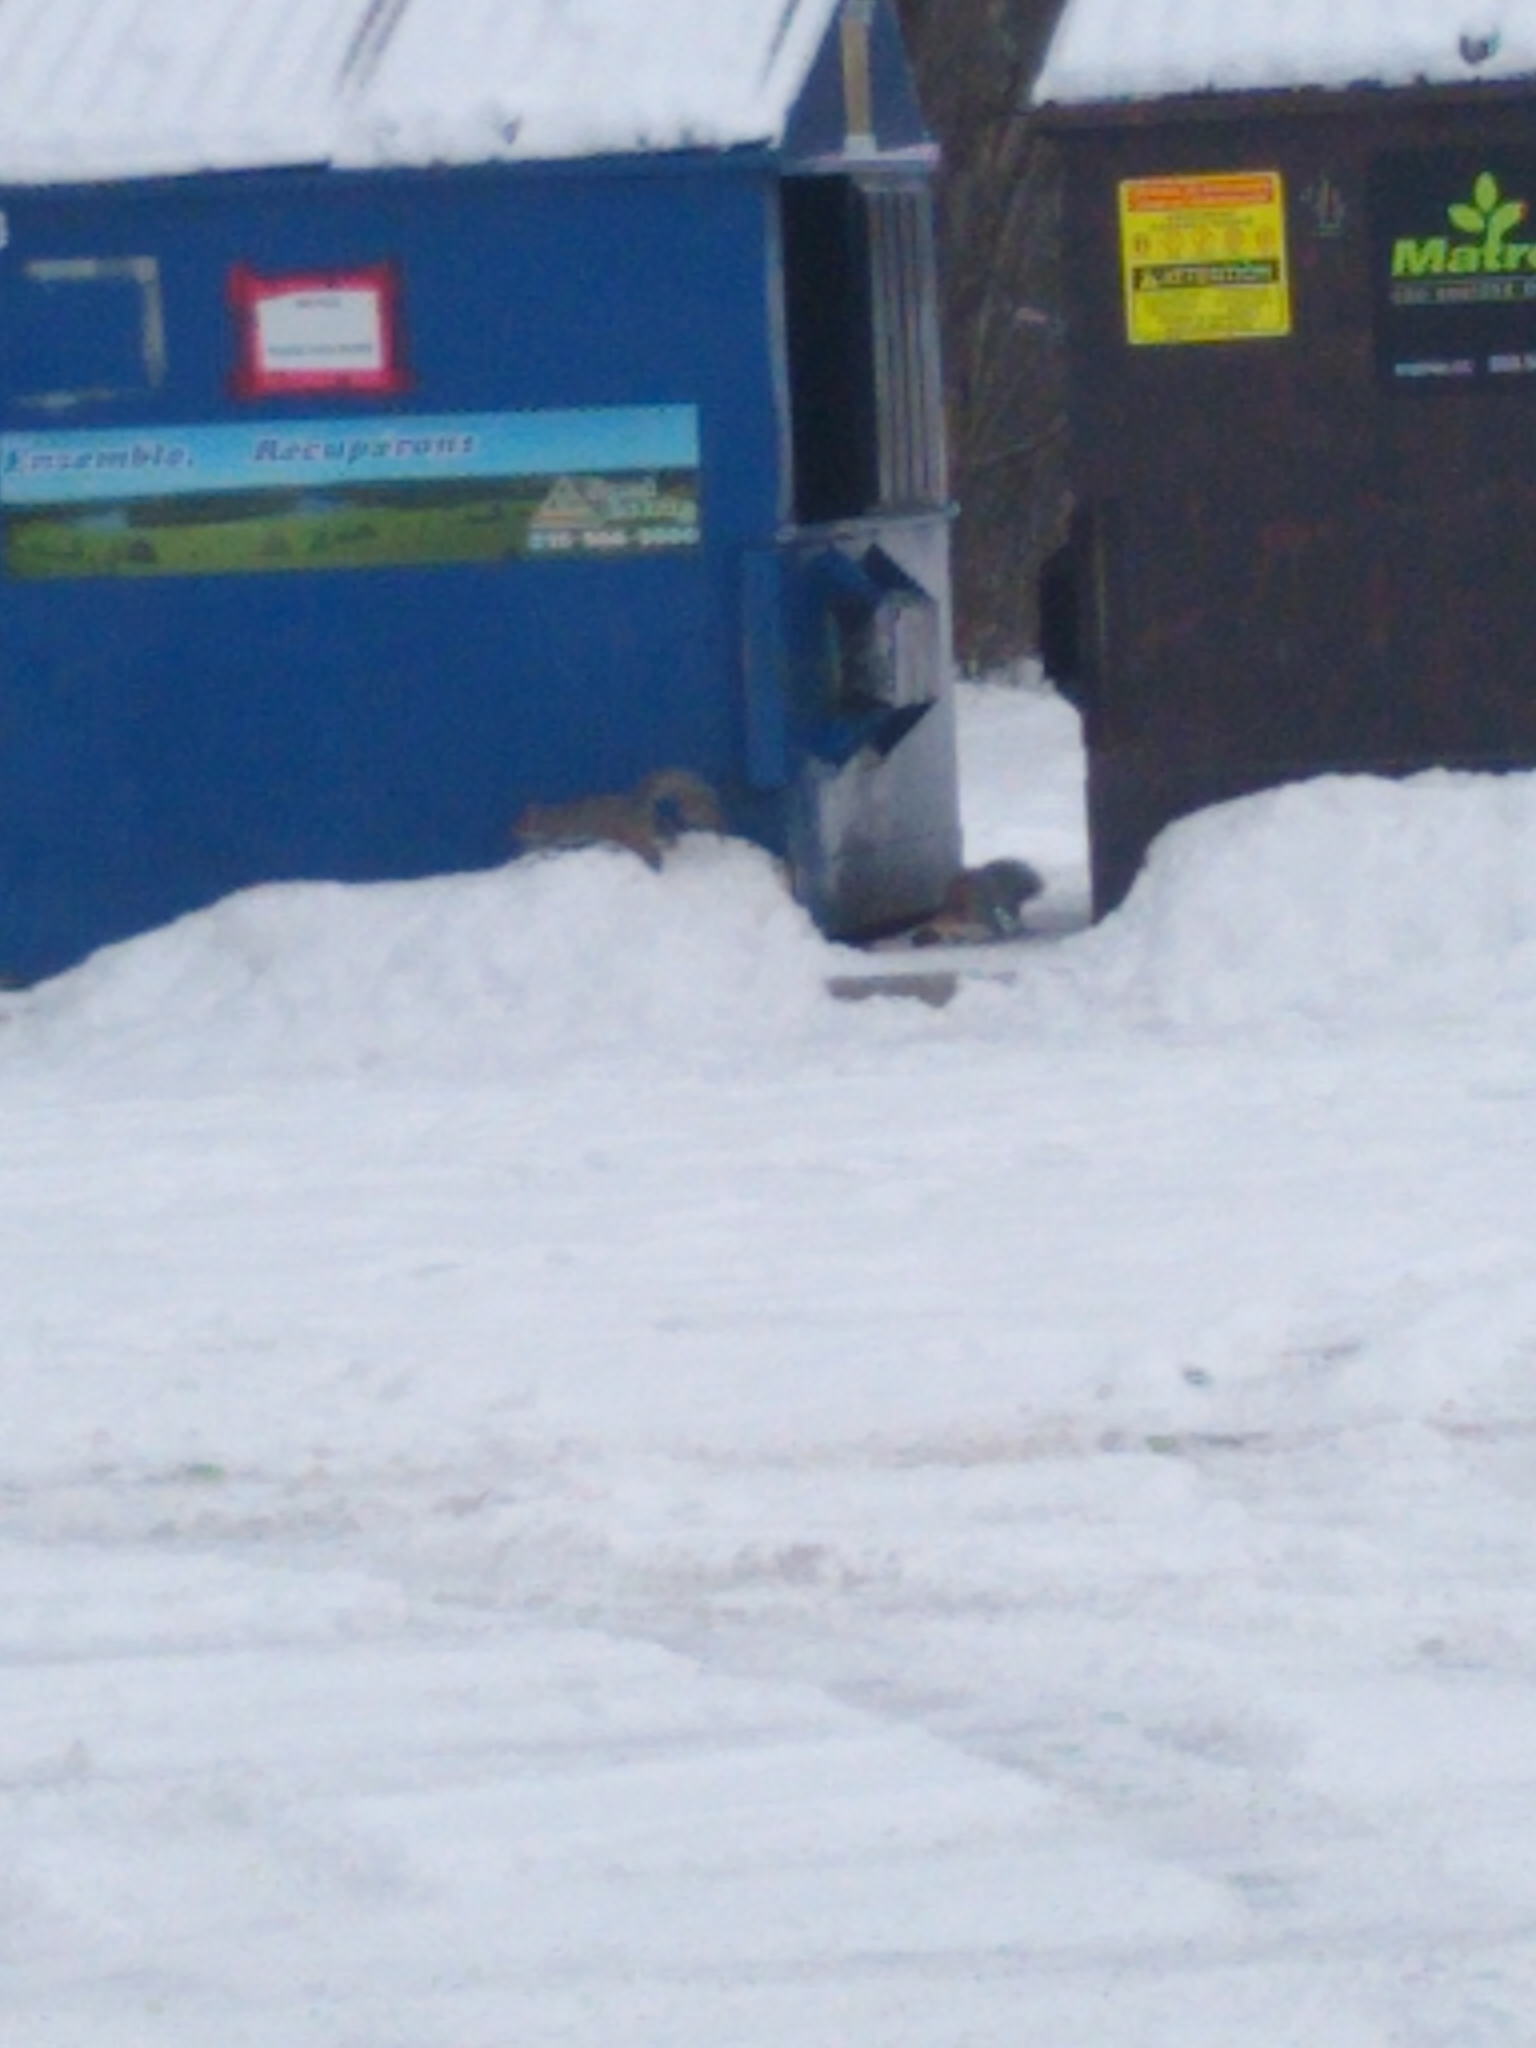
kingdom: Animalia
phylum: Chordata
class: Mammalia
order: Rodentia
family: Sciuridae
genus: Sciurus
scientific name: Sciurus carolinensis
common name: Eastern gray squirrel
